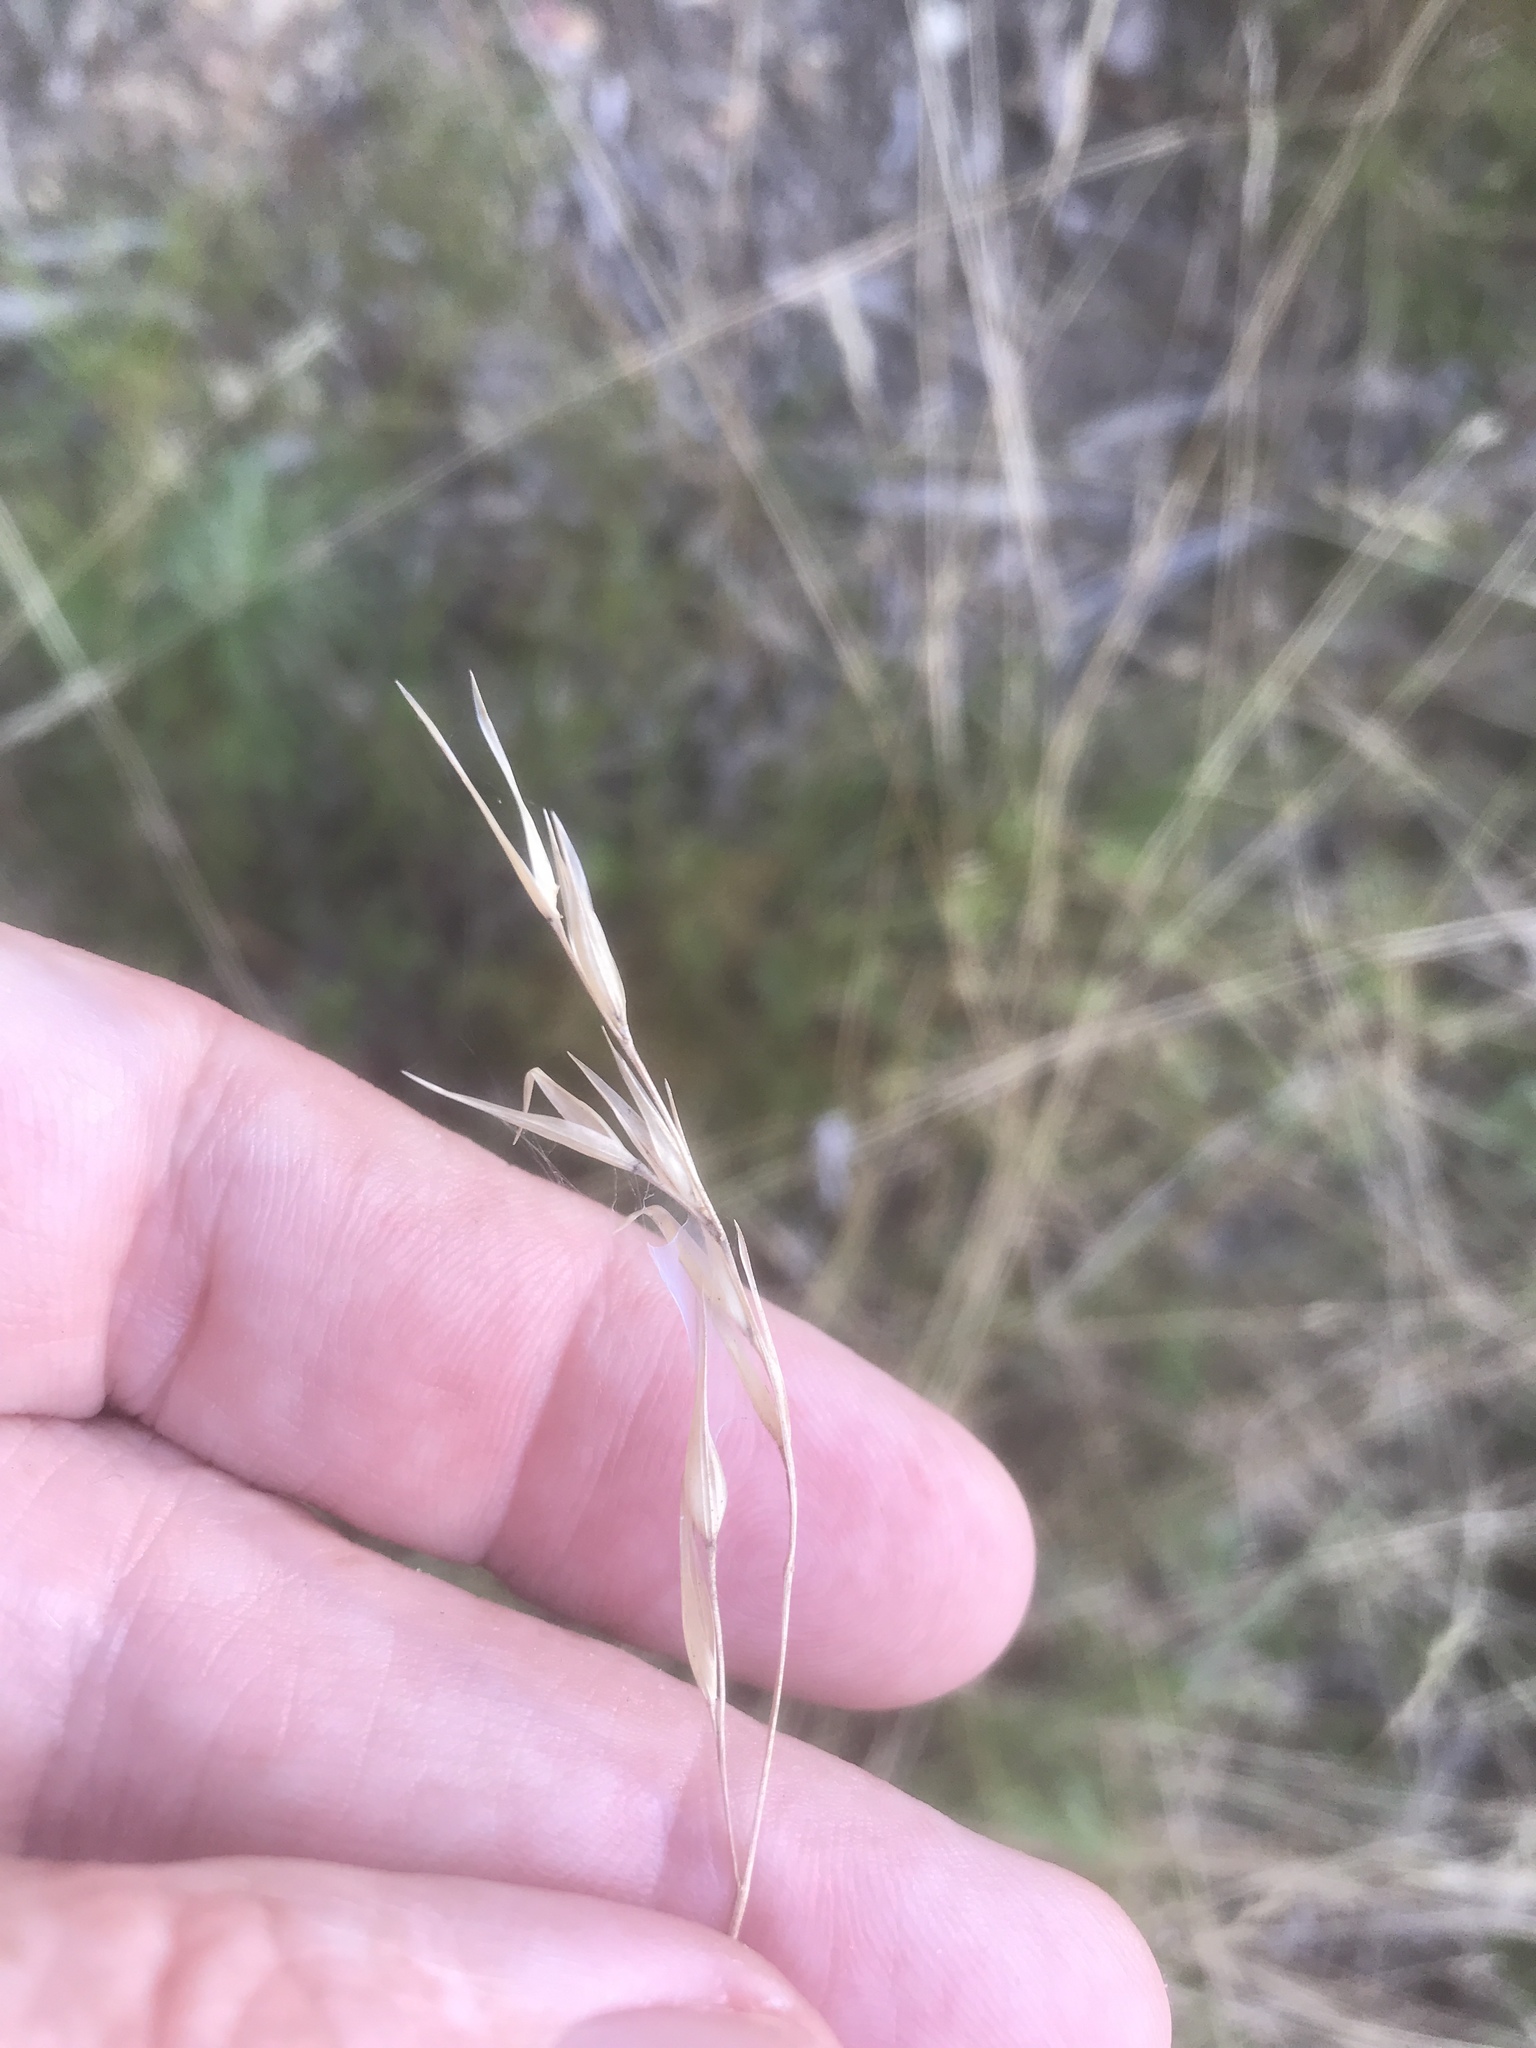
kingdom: Plantae
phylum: Tracheophyta
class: Liliopsida
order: Poales
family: Poaceae
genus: Danthonia
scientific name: Danthonia spicata
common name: Common wild oatgrass
